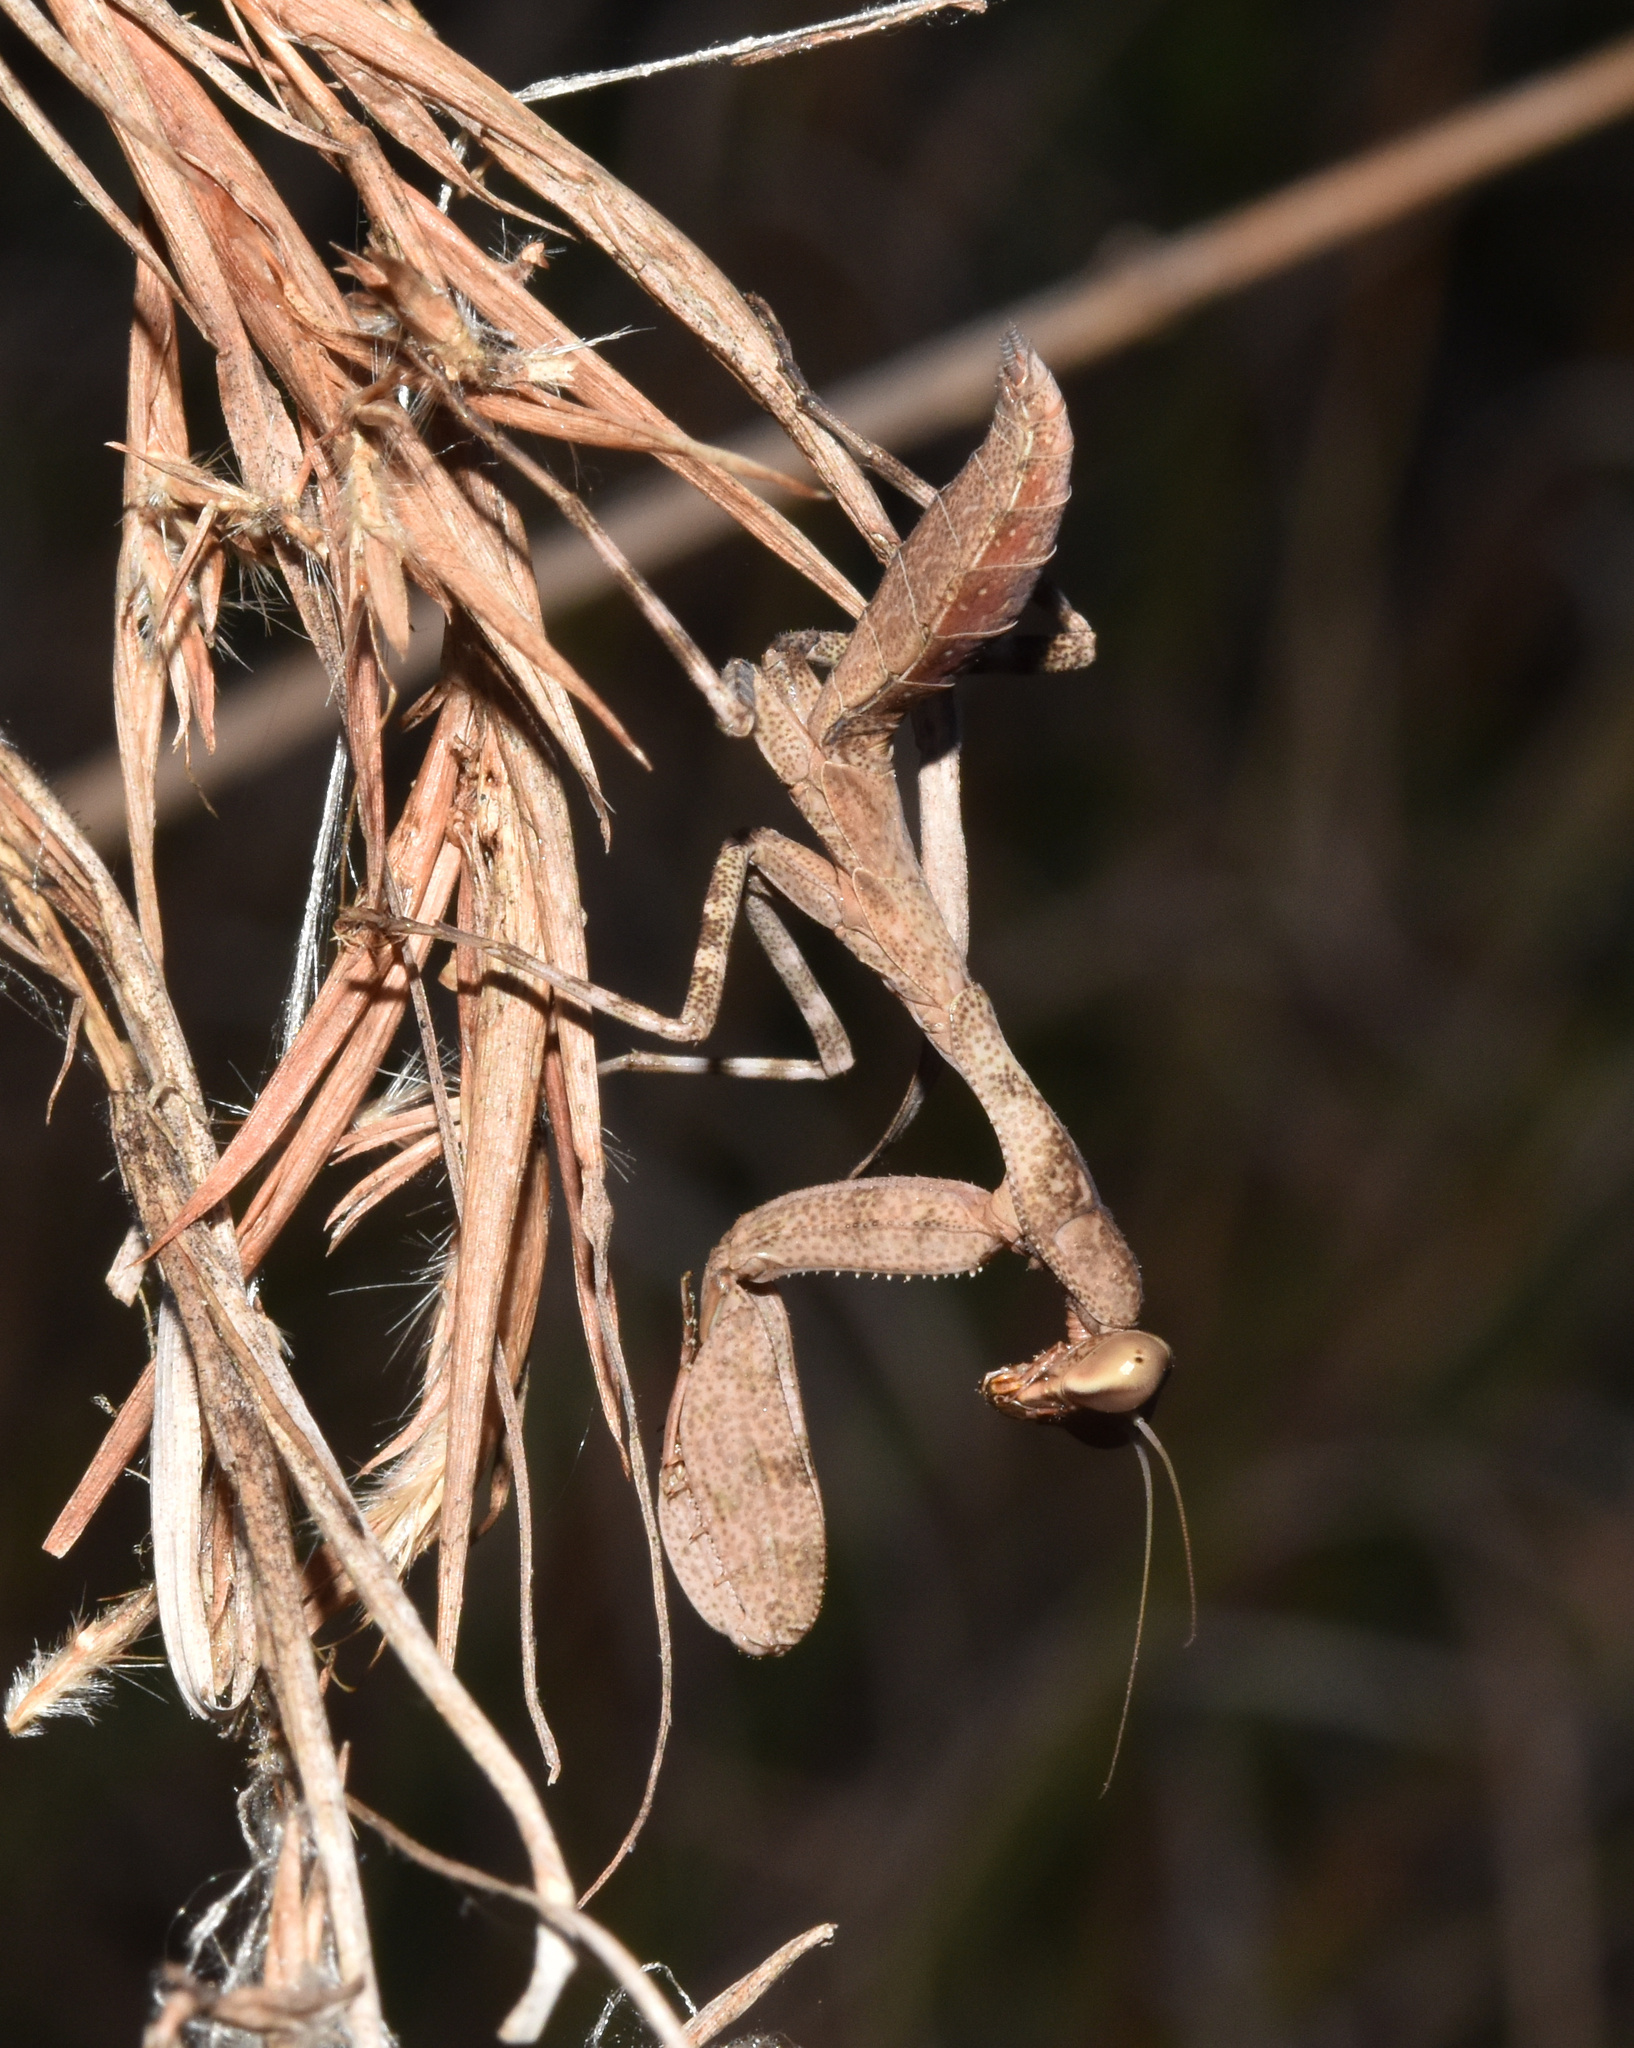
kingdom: Animalia
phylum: Arthropoda
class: Insecta
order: Mantodea
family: Miomantidae
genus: Cilnia
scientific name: Cilnia humeralis
